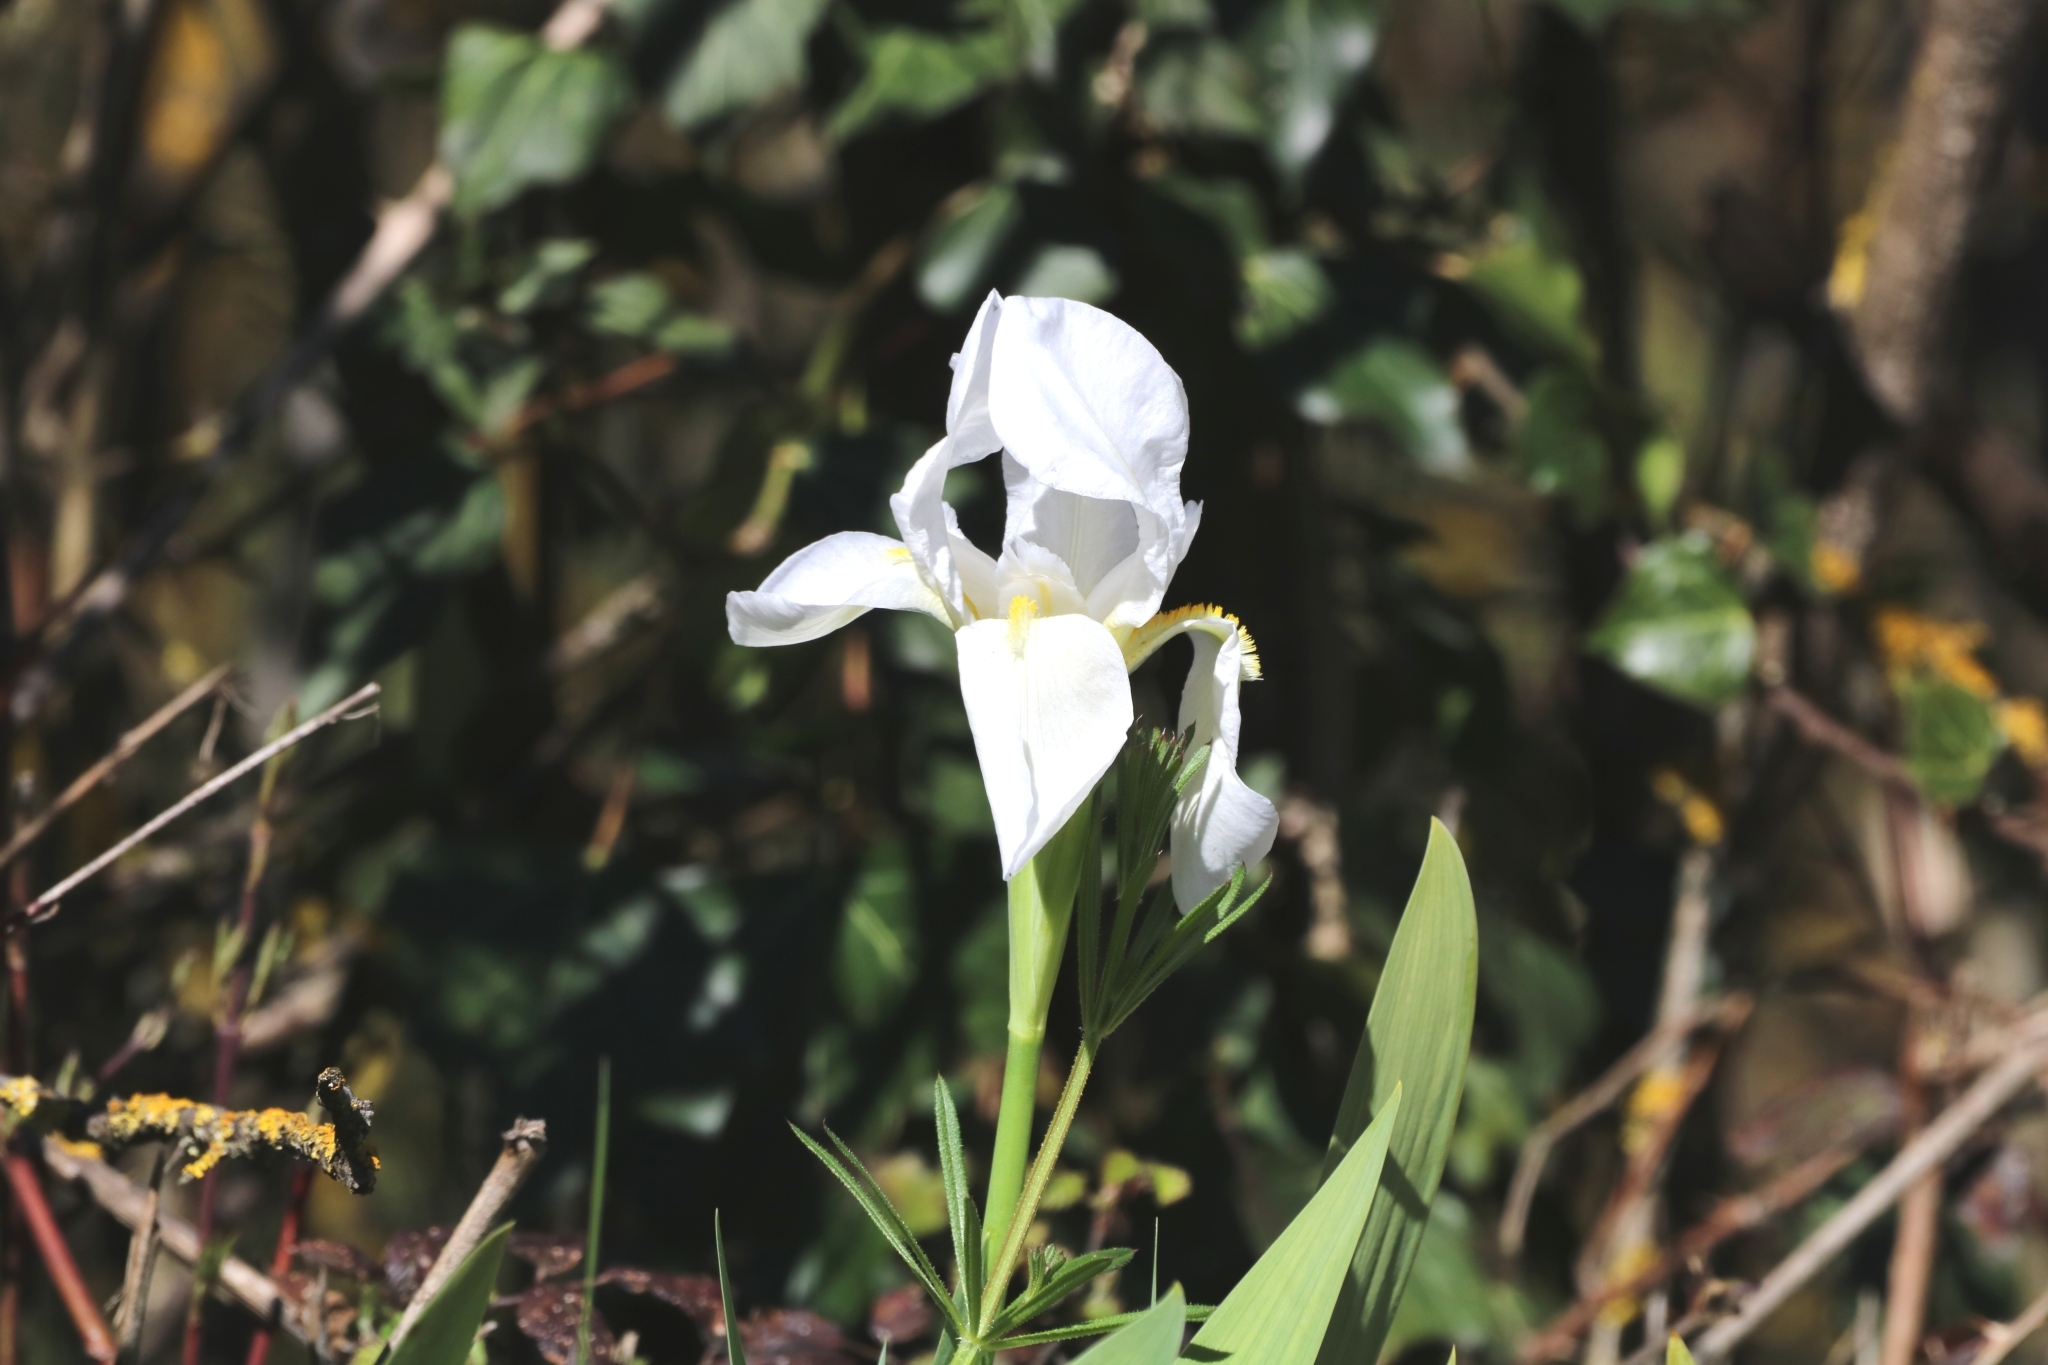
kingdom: Plantae
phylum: Tracheophyta
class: Liliopsida
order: Asparagales
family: Iridaceae
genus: Iris
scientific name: Iris florentina
